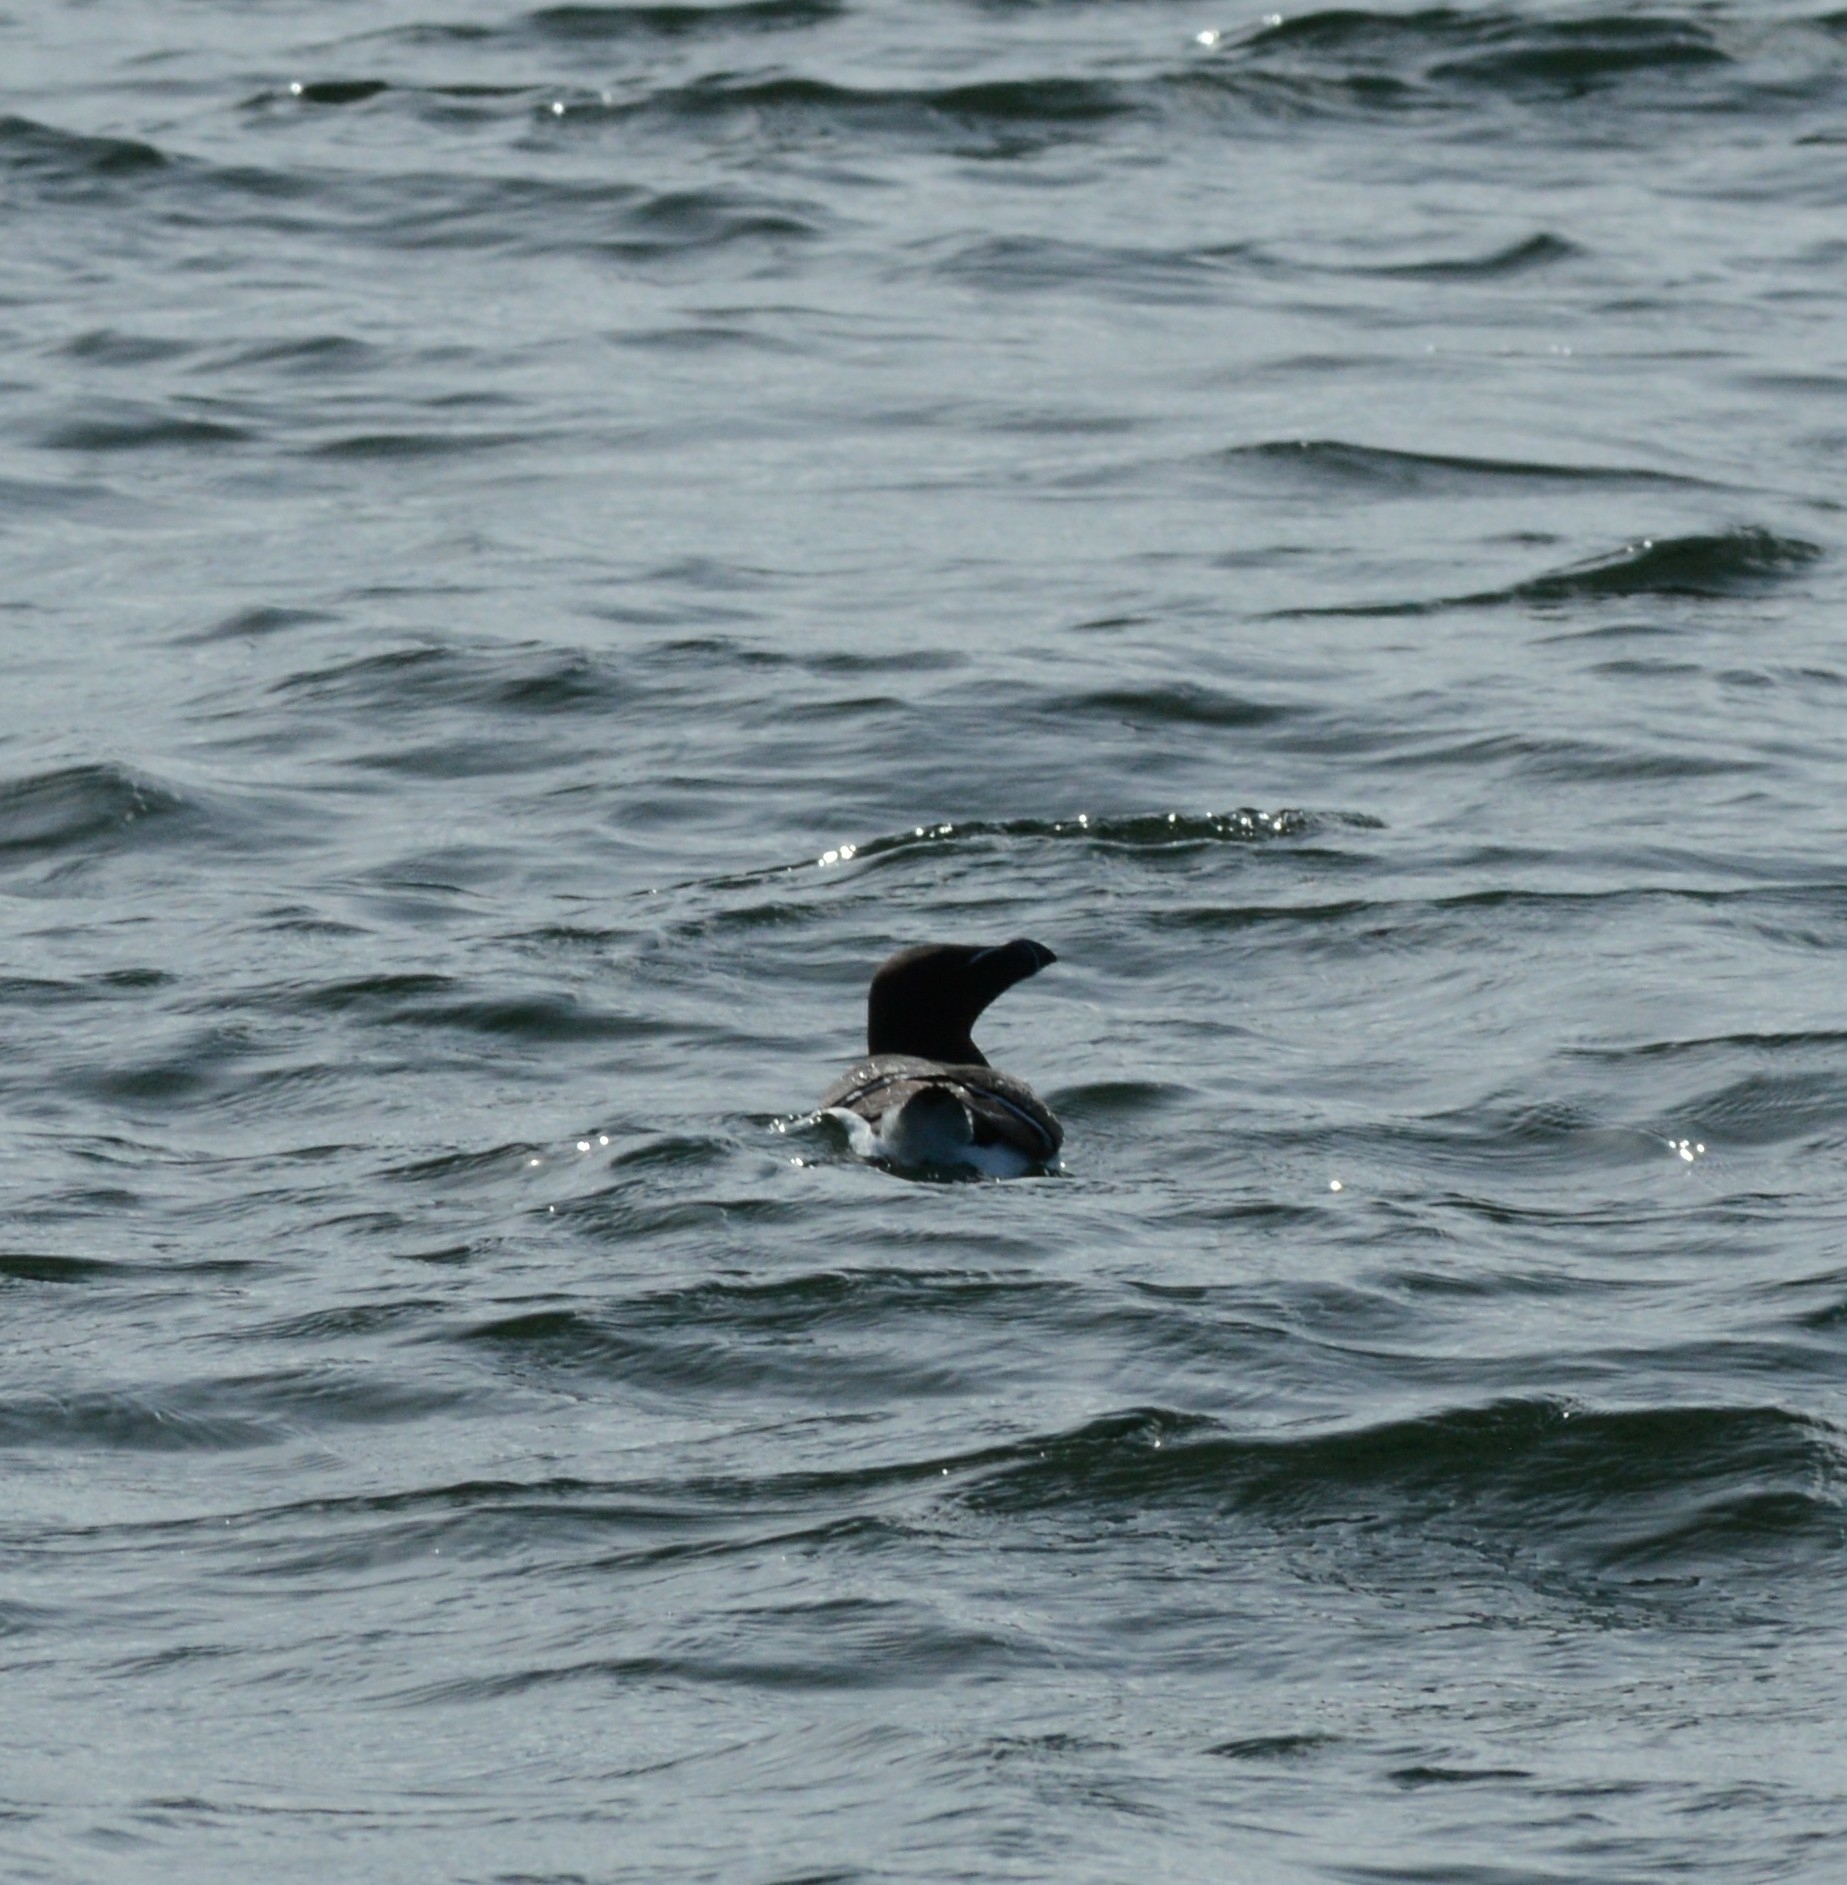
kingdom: Animalia
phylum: Chordata
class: Aves
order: Charadriiformes
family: Alcidae
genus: Alca
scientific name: Alca torda
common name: Razorbill
